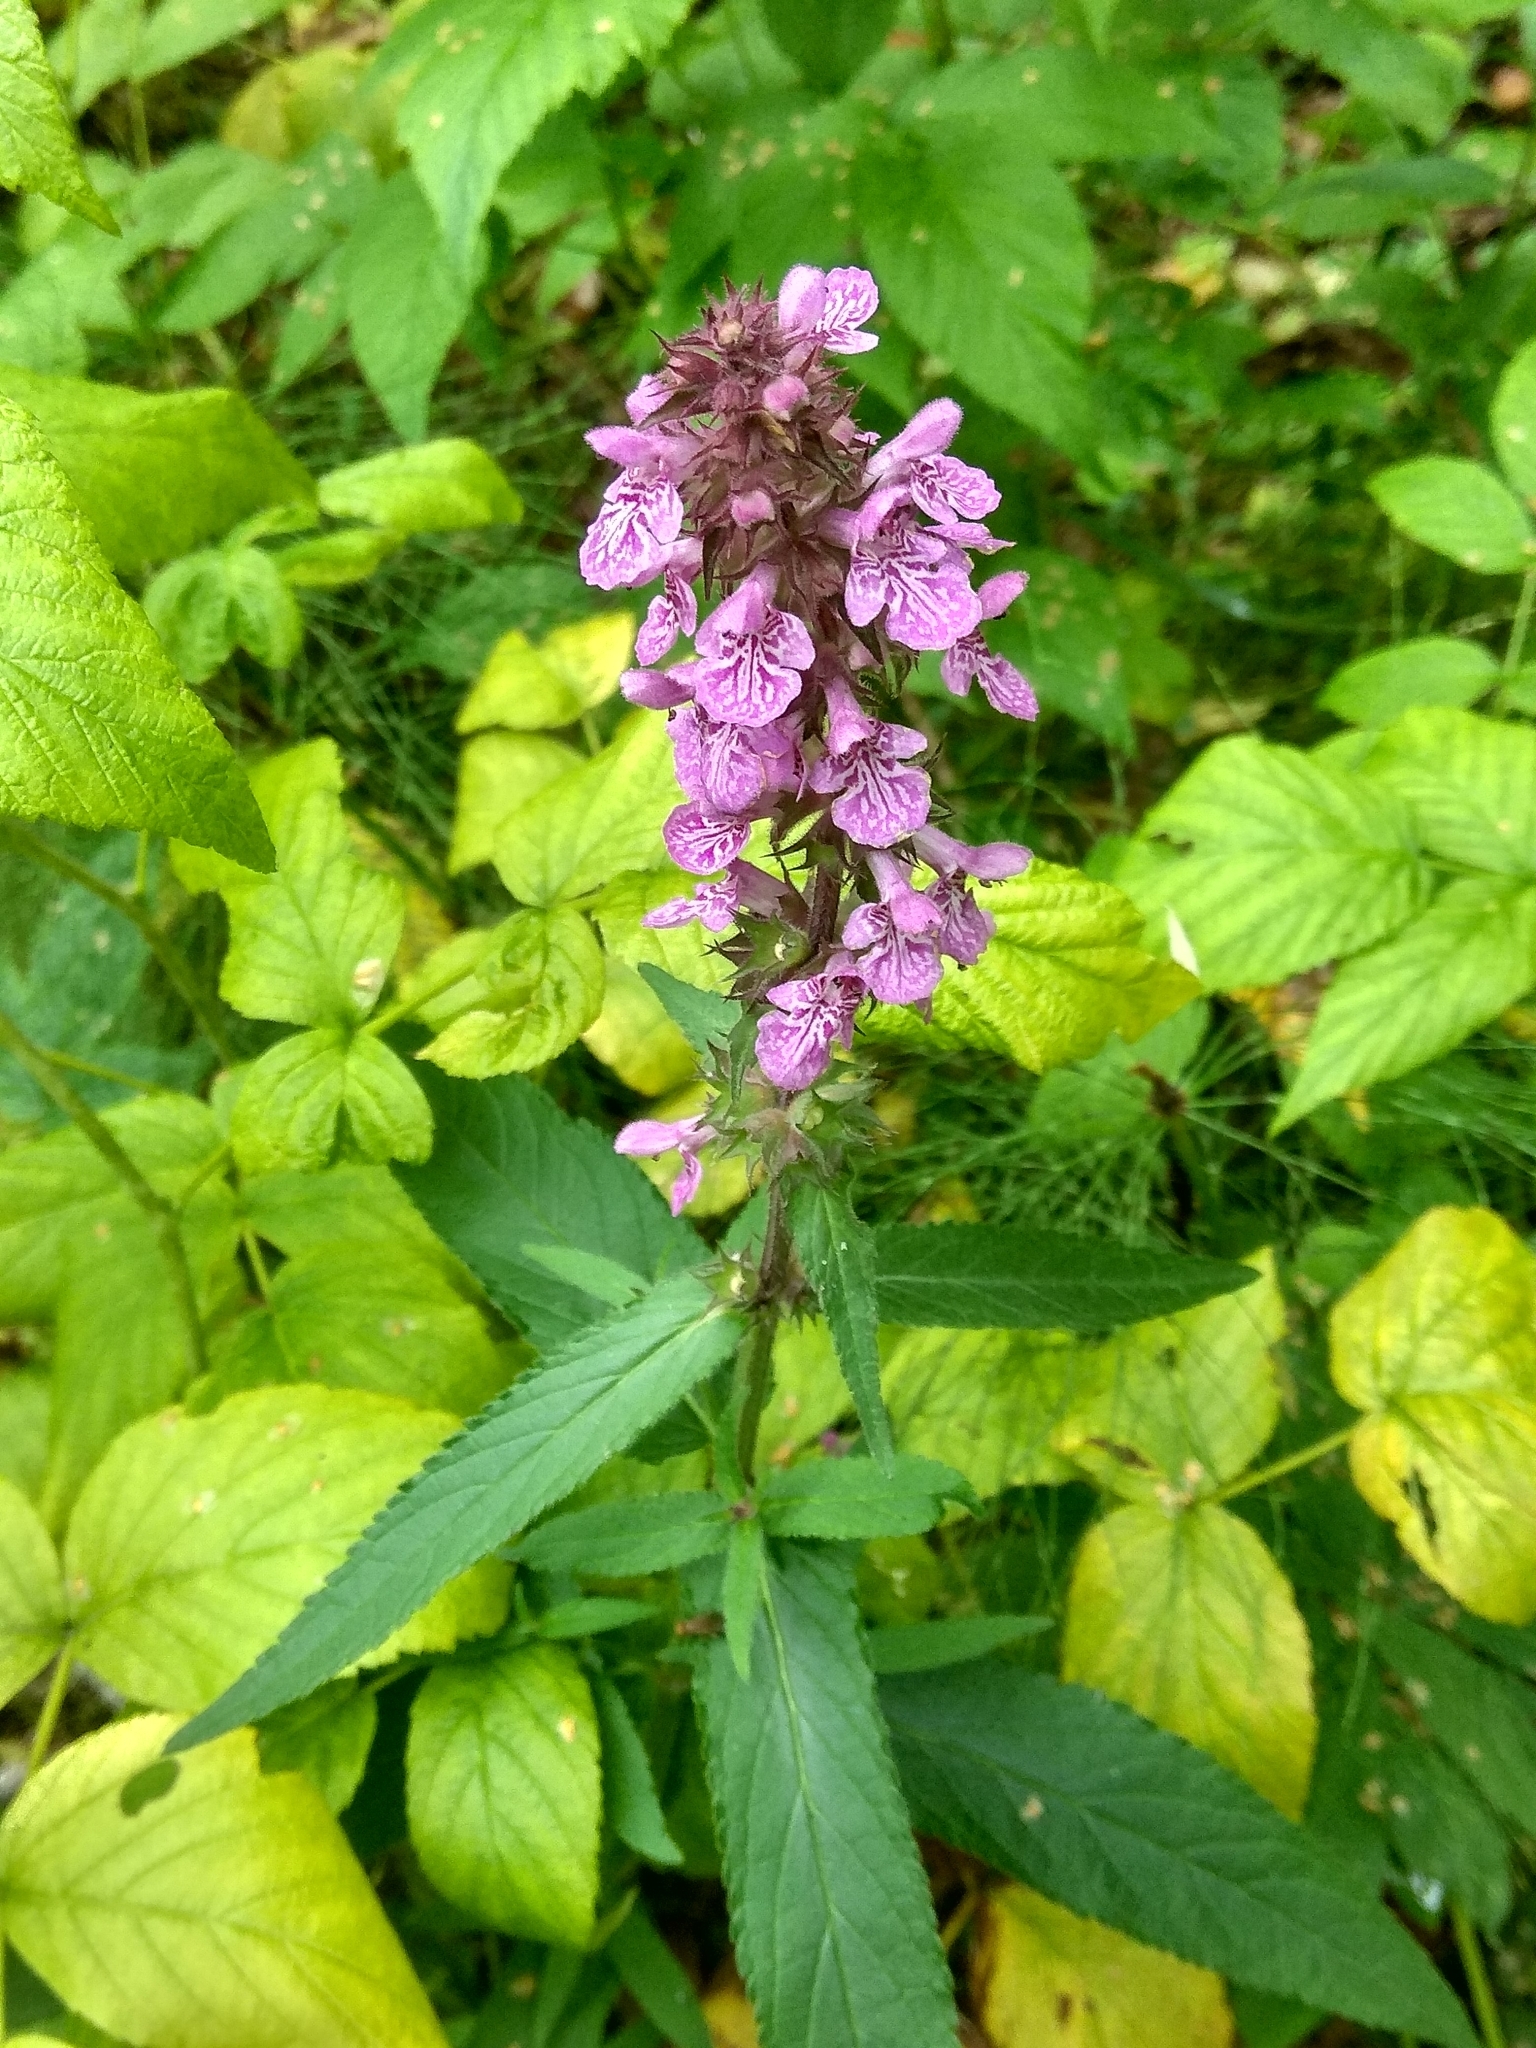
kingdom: Plantae
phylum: Tracheophyta
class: Magnoliopsida
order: Lamiales
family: Lamiaceae
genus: Stachys
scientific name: Stachys palustris
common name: Marsh woundwort
